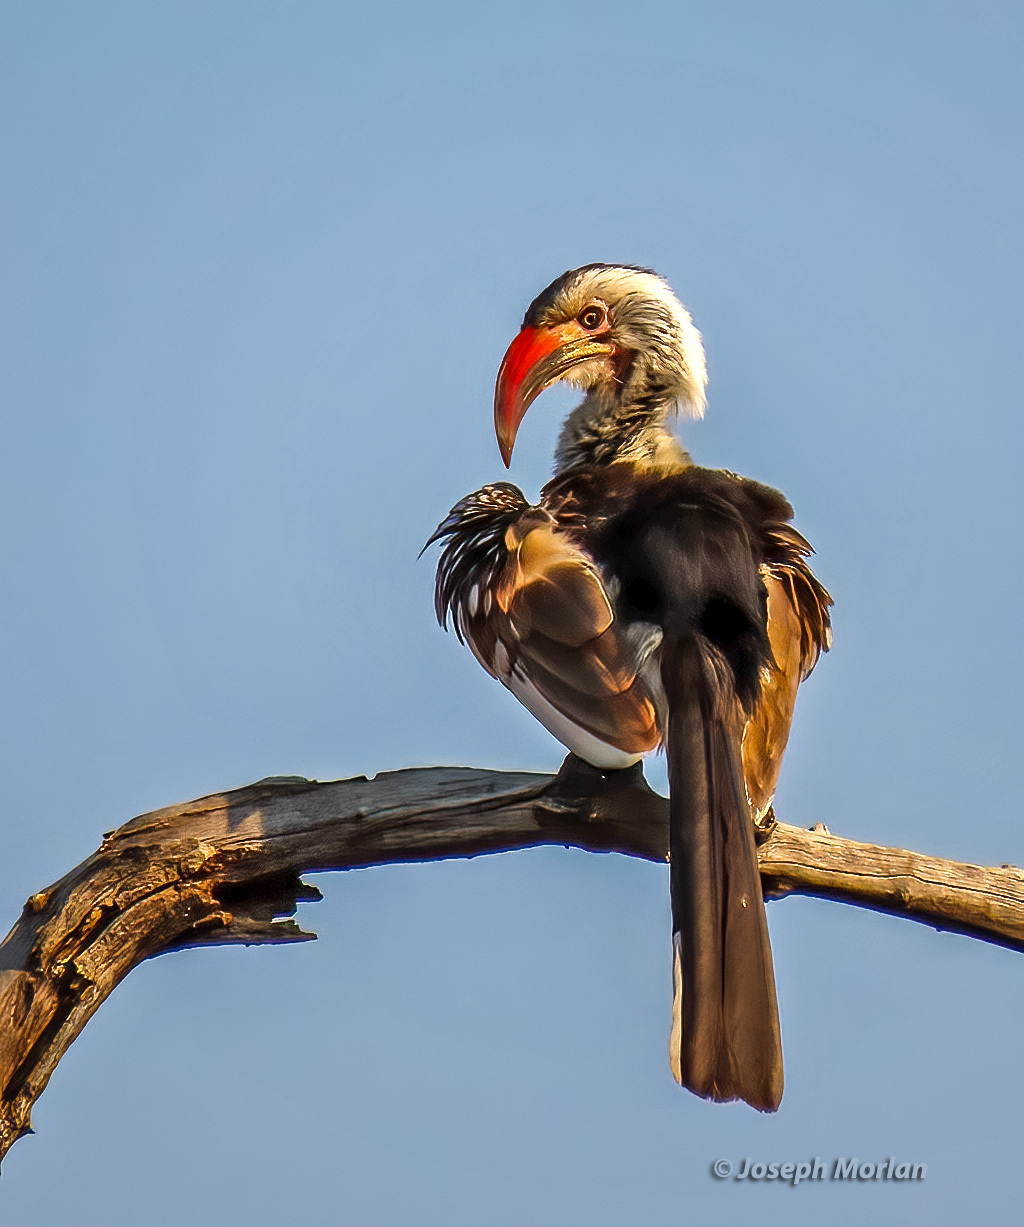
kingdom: Animalia
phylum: Chordata
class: Aves
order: Bucerotiformes
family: Bucerotidae
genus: Tockus
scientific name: Tockus rufirostris
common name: Southern red-billed hornbill
